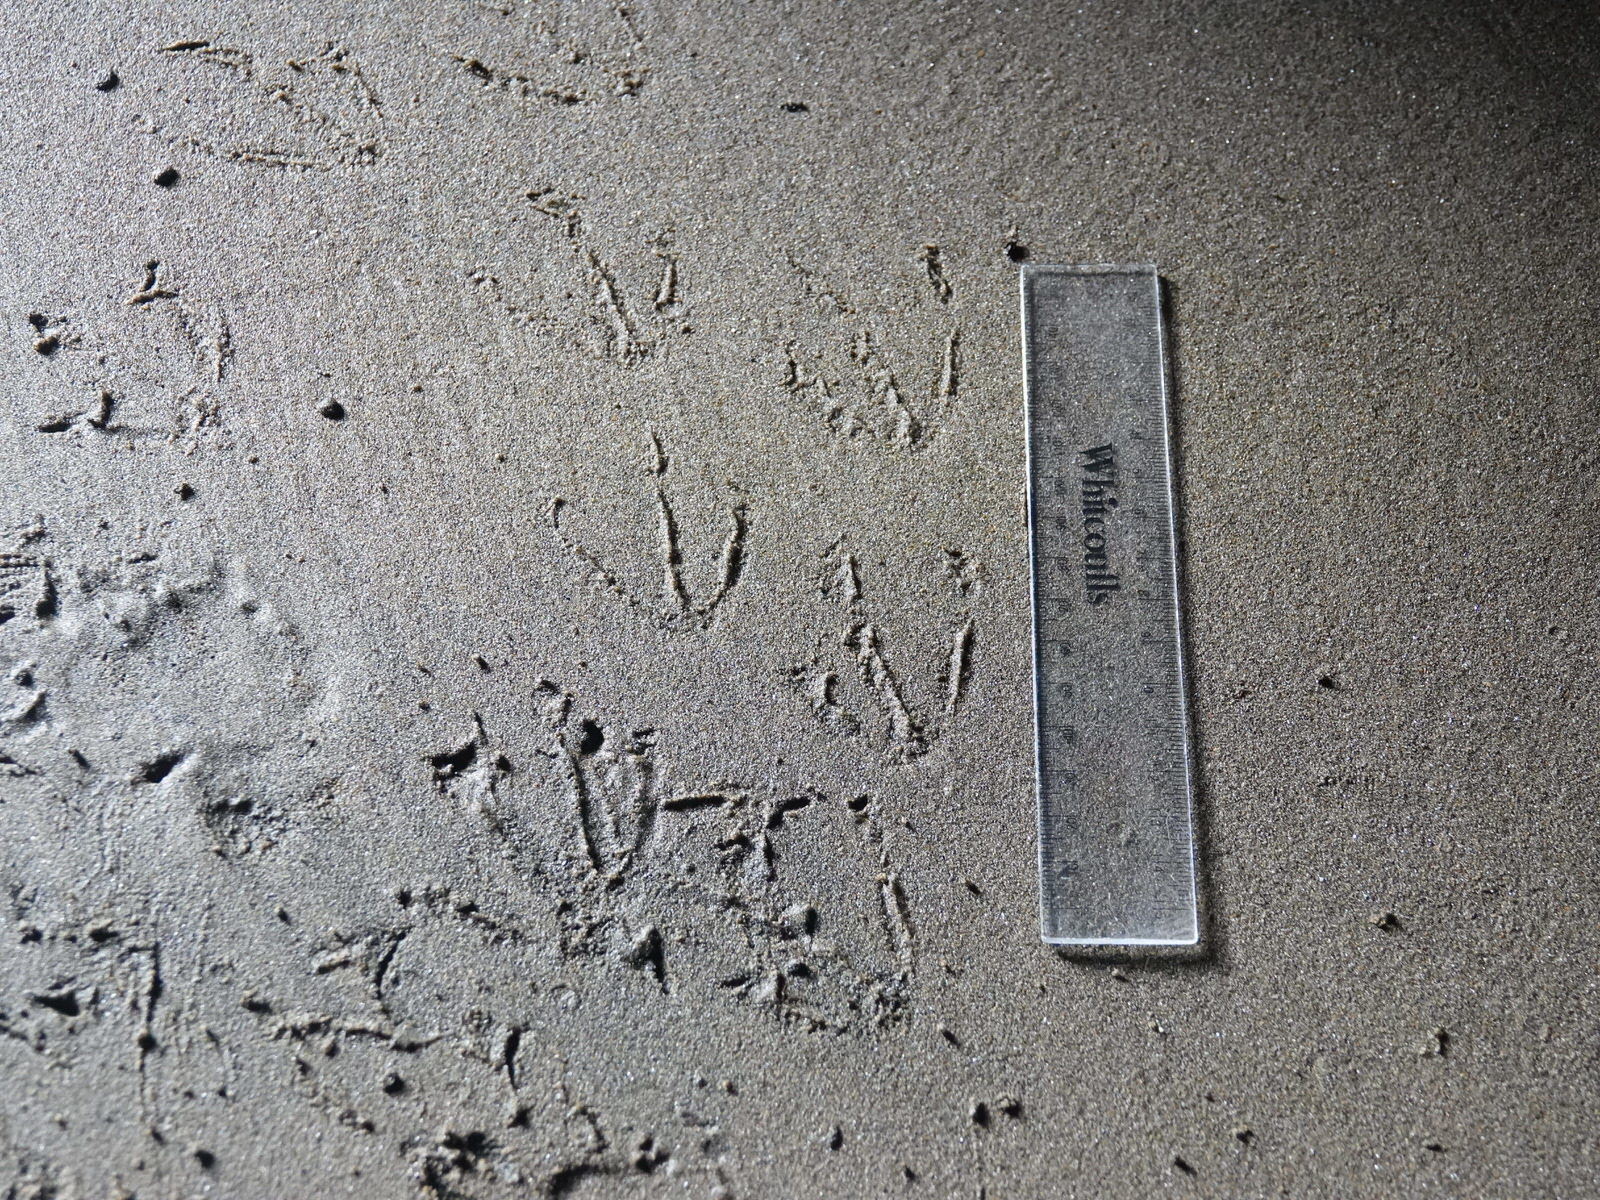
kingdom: Animalia
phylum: Chordata
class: Aves
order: Sphenisciformes
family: Spheniscidae
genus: Eudyptula
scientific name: Eudyptula minor
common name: Little penguin
